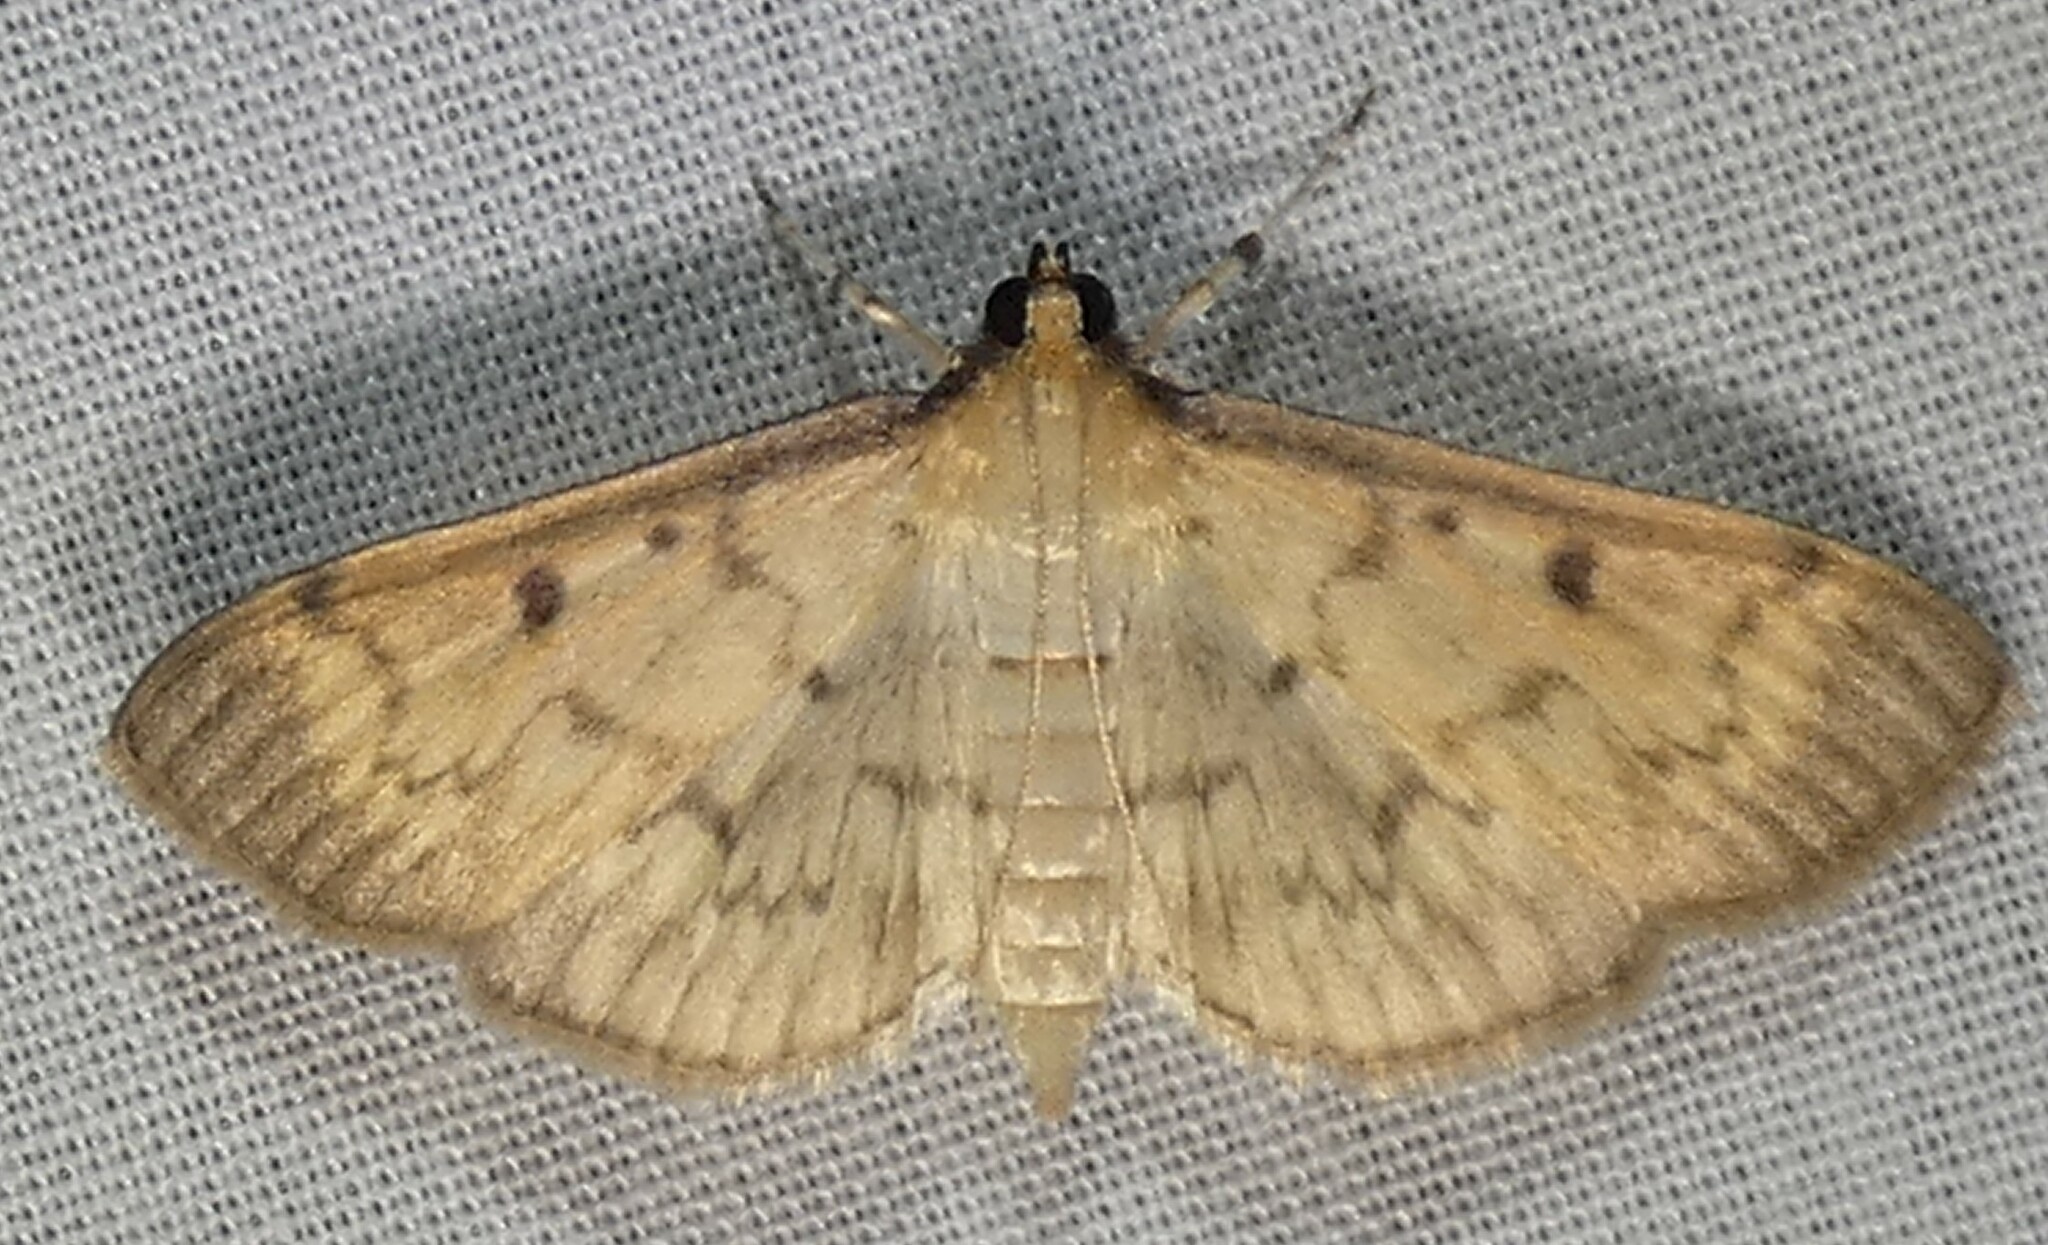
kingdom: Animalia
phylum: Arthropoda
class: Insecta
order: Lepidoptera
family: Crambidae
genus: Herpetogramma
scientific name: Herpetogramma fluctuosalis
